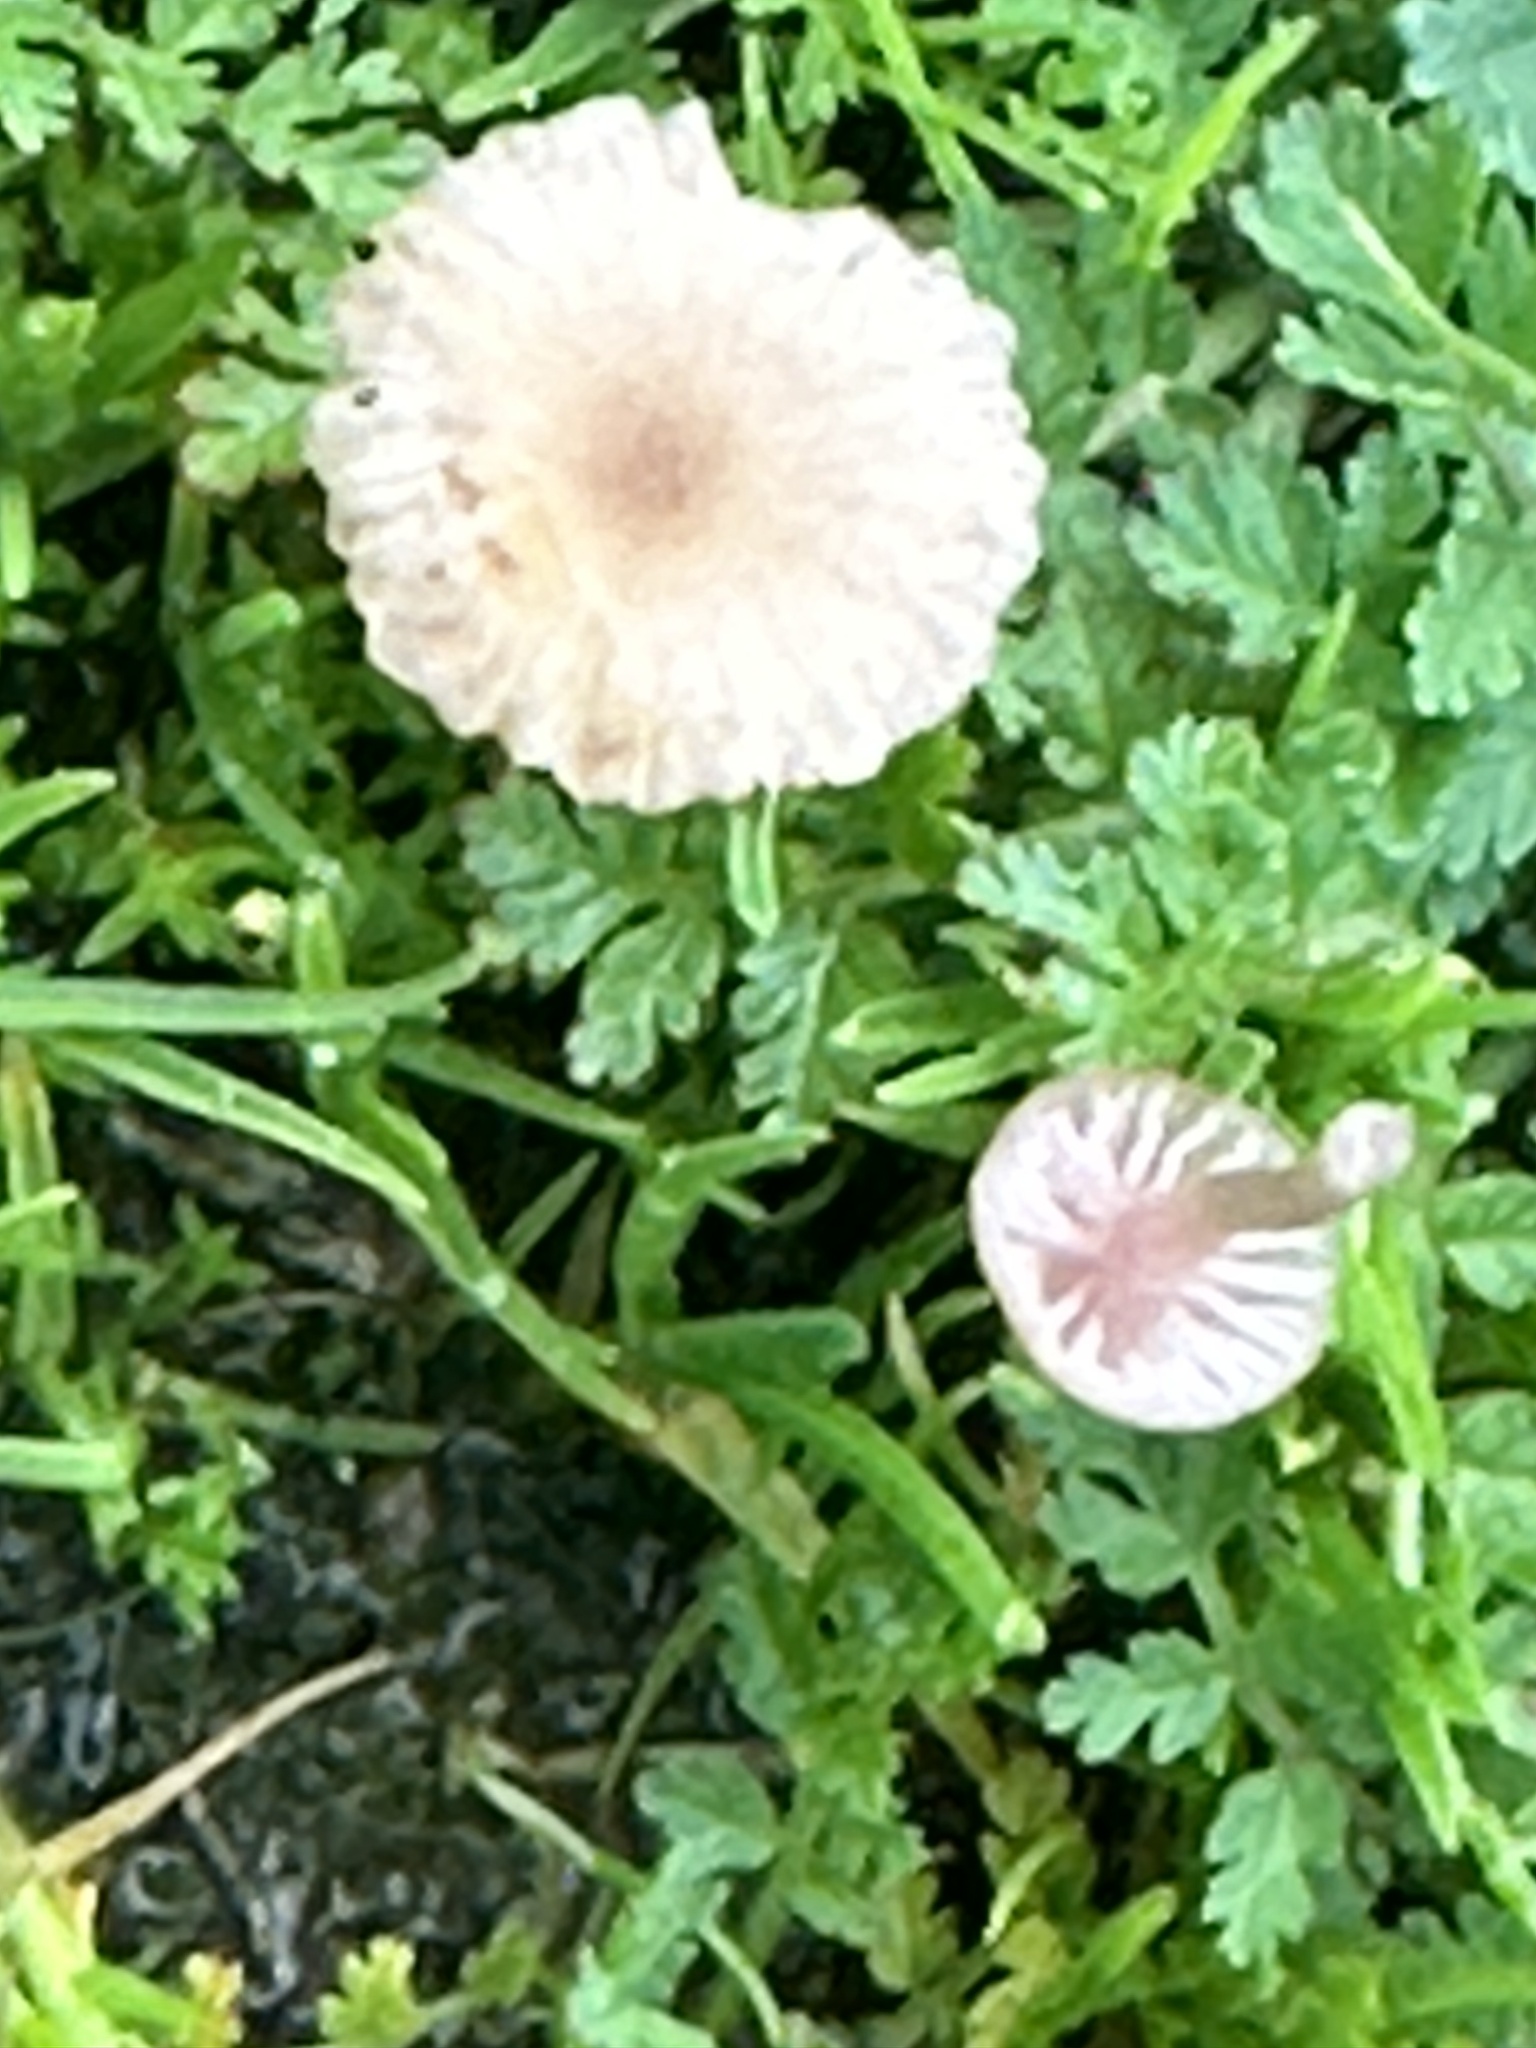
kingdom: Fungi
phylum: Basidiomycota
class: Agaricomycetes
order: Hymenochaetales
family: Rickenellaceae
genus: Contumyces
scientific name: Contumyces rosellus
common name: Rosy navel
